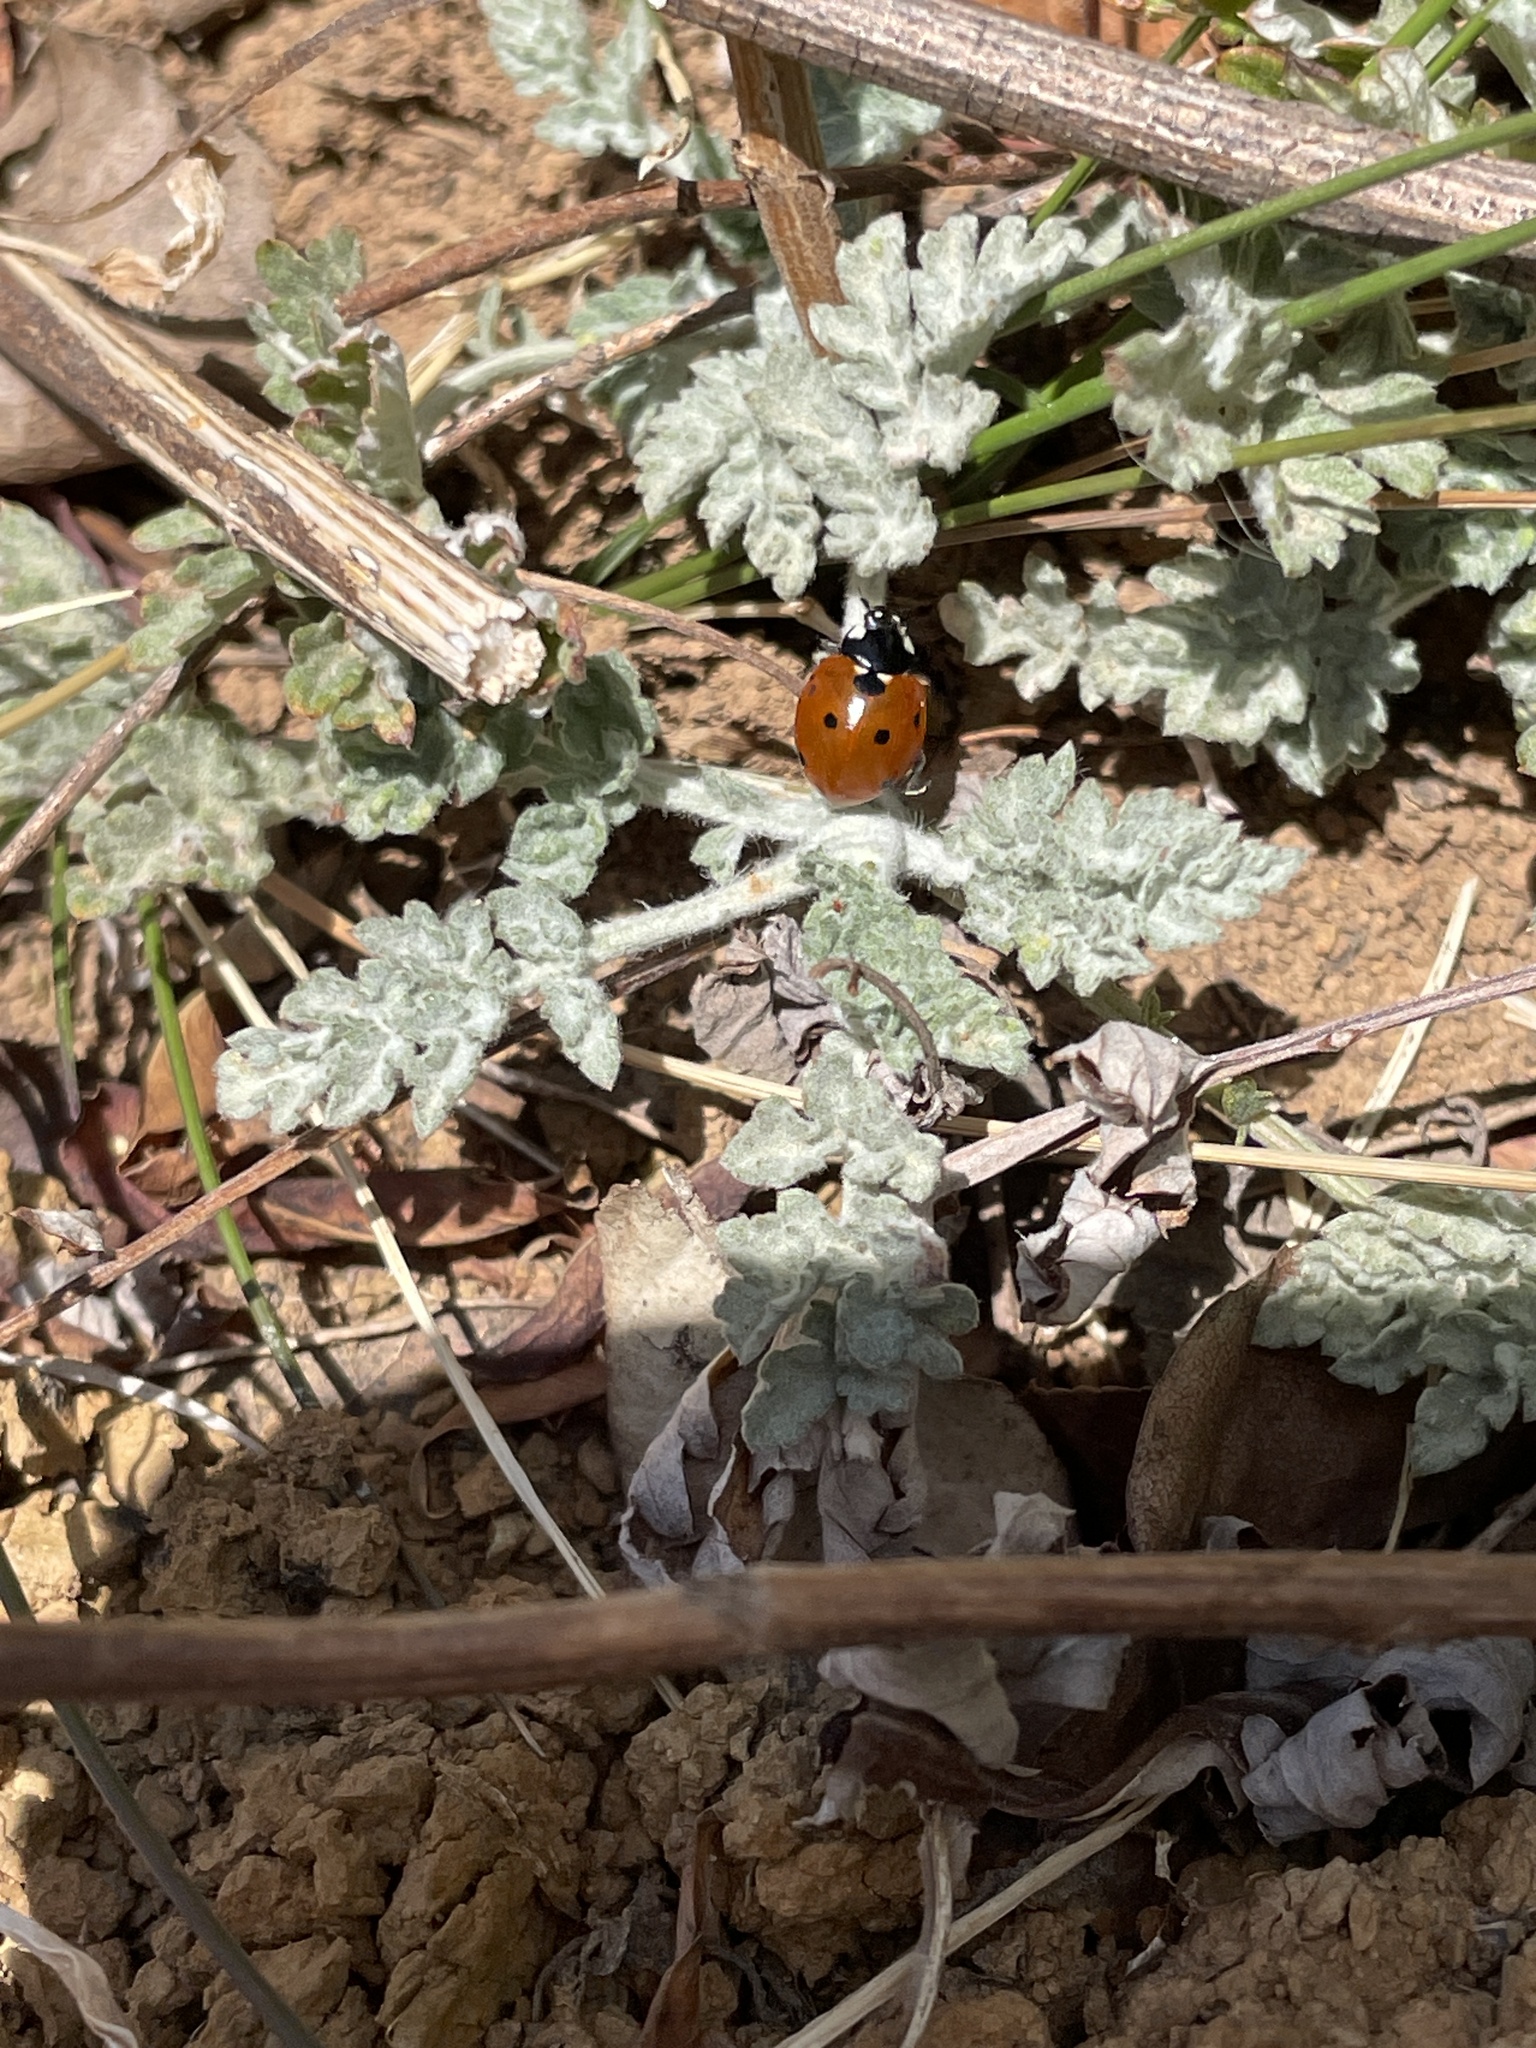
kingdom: Animalia
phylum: Arthropoda
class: Insecta
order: Coleoptera
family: Coccinellidae
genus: Coccinella
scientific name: Coccinella septempunctata
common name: Sevenspotted lady beetle
